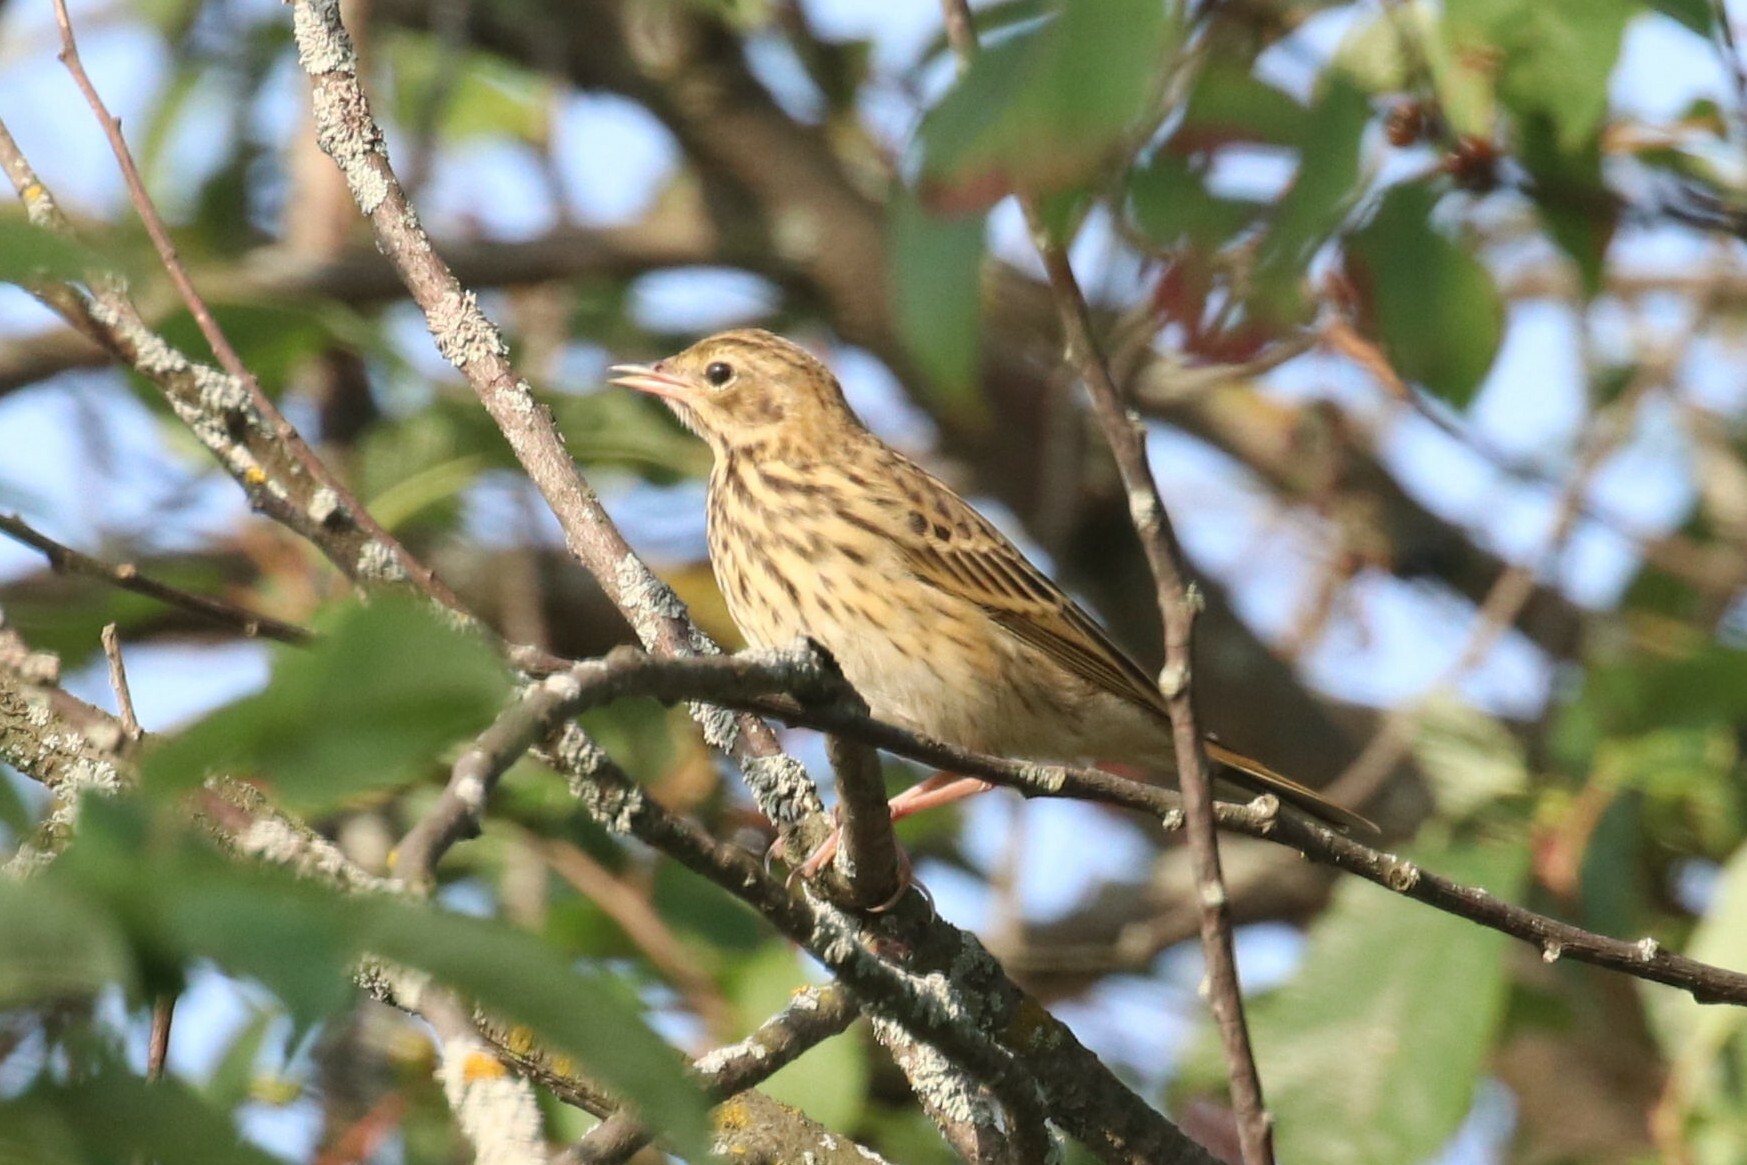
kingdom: Animalia
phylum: Chordata
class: Aves
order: Passeriformes
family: Motacillidae
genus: Anthus
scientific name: Anthus trivialis
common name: Tree pipit
